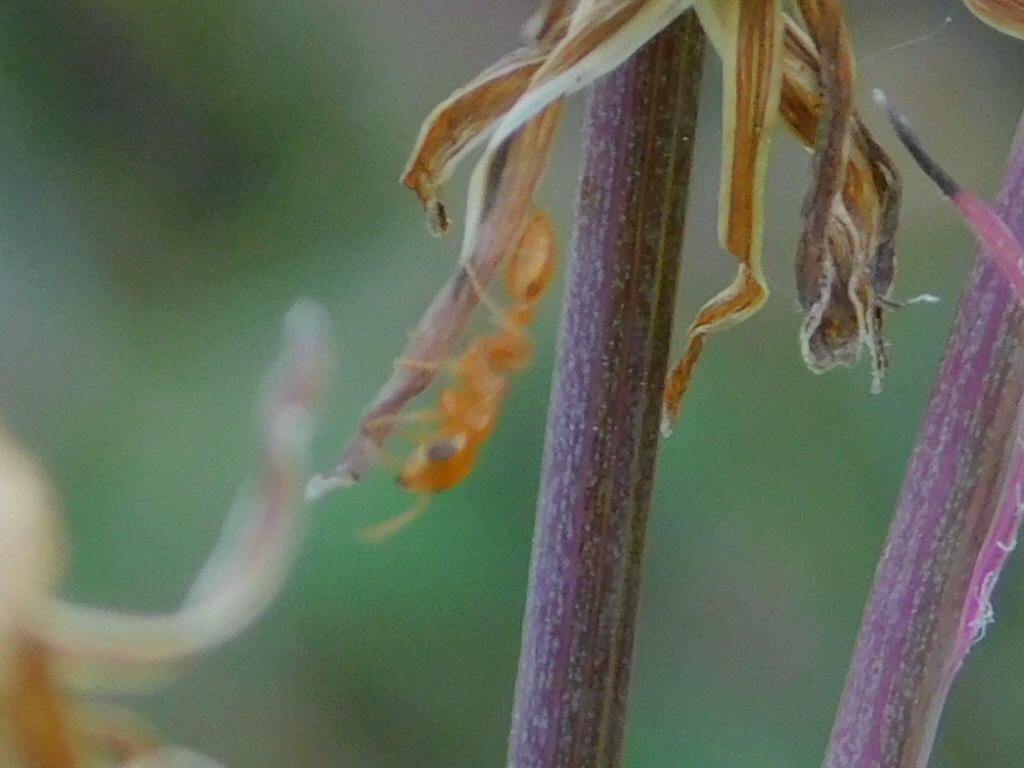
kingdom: Animalia
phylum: Arthropoda
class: Insecta
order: Hymenoptera
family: Formicidae
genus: Pseudomyrmex
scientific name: Pseudomyrmex pallidus
